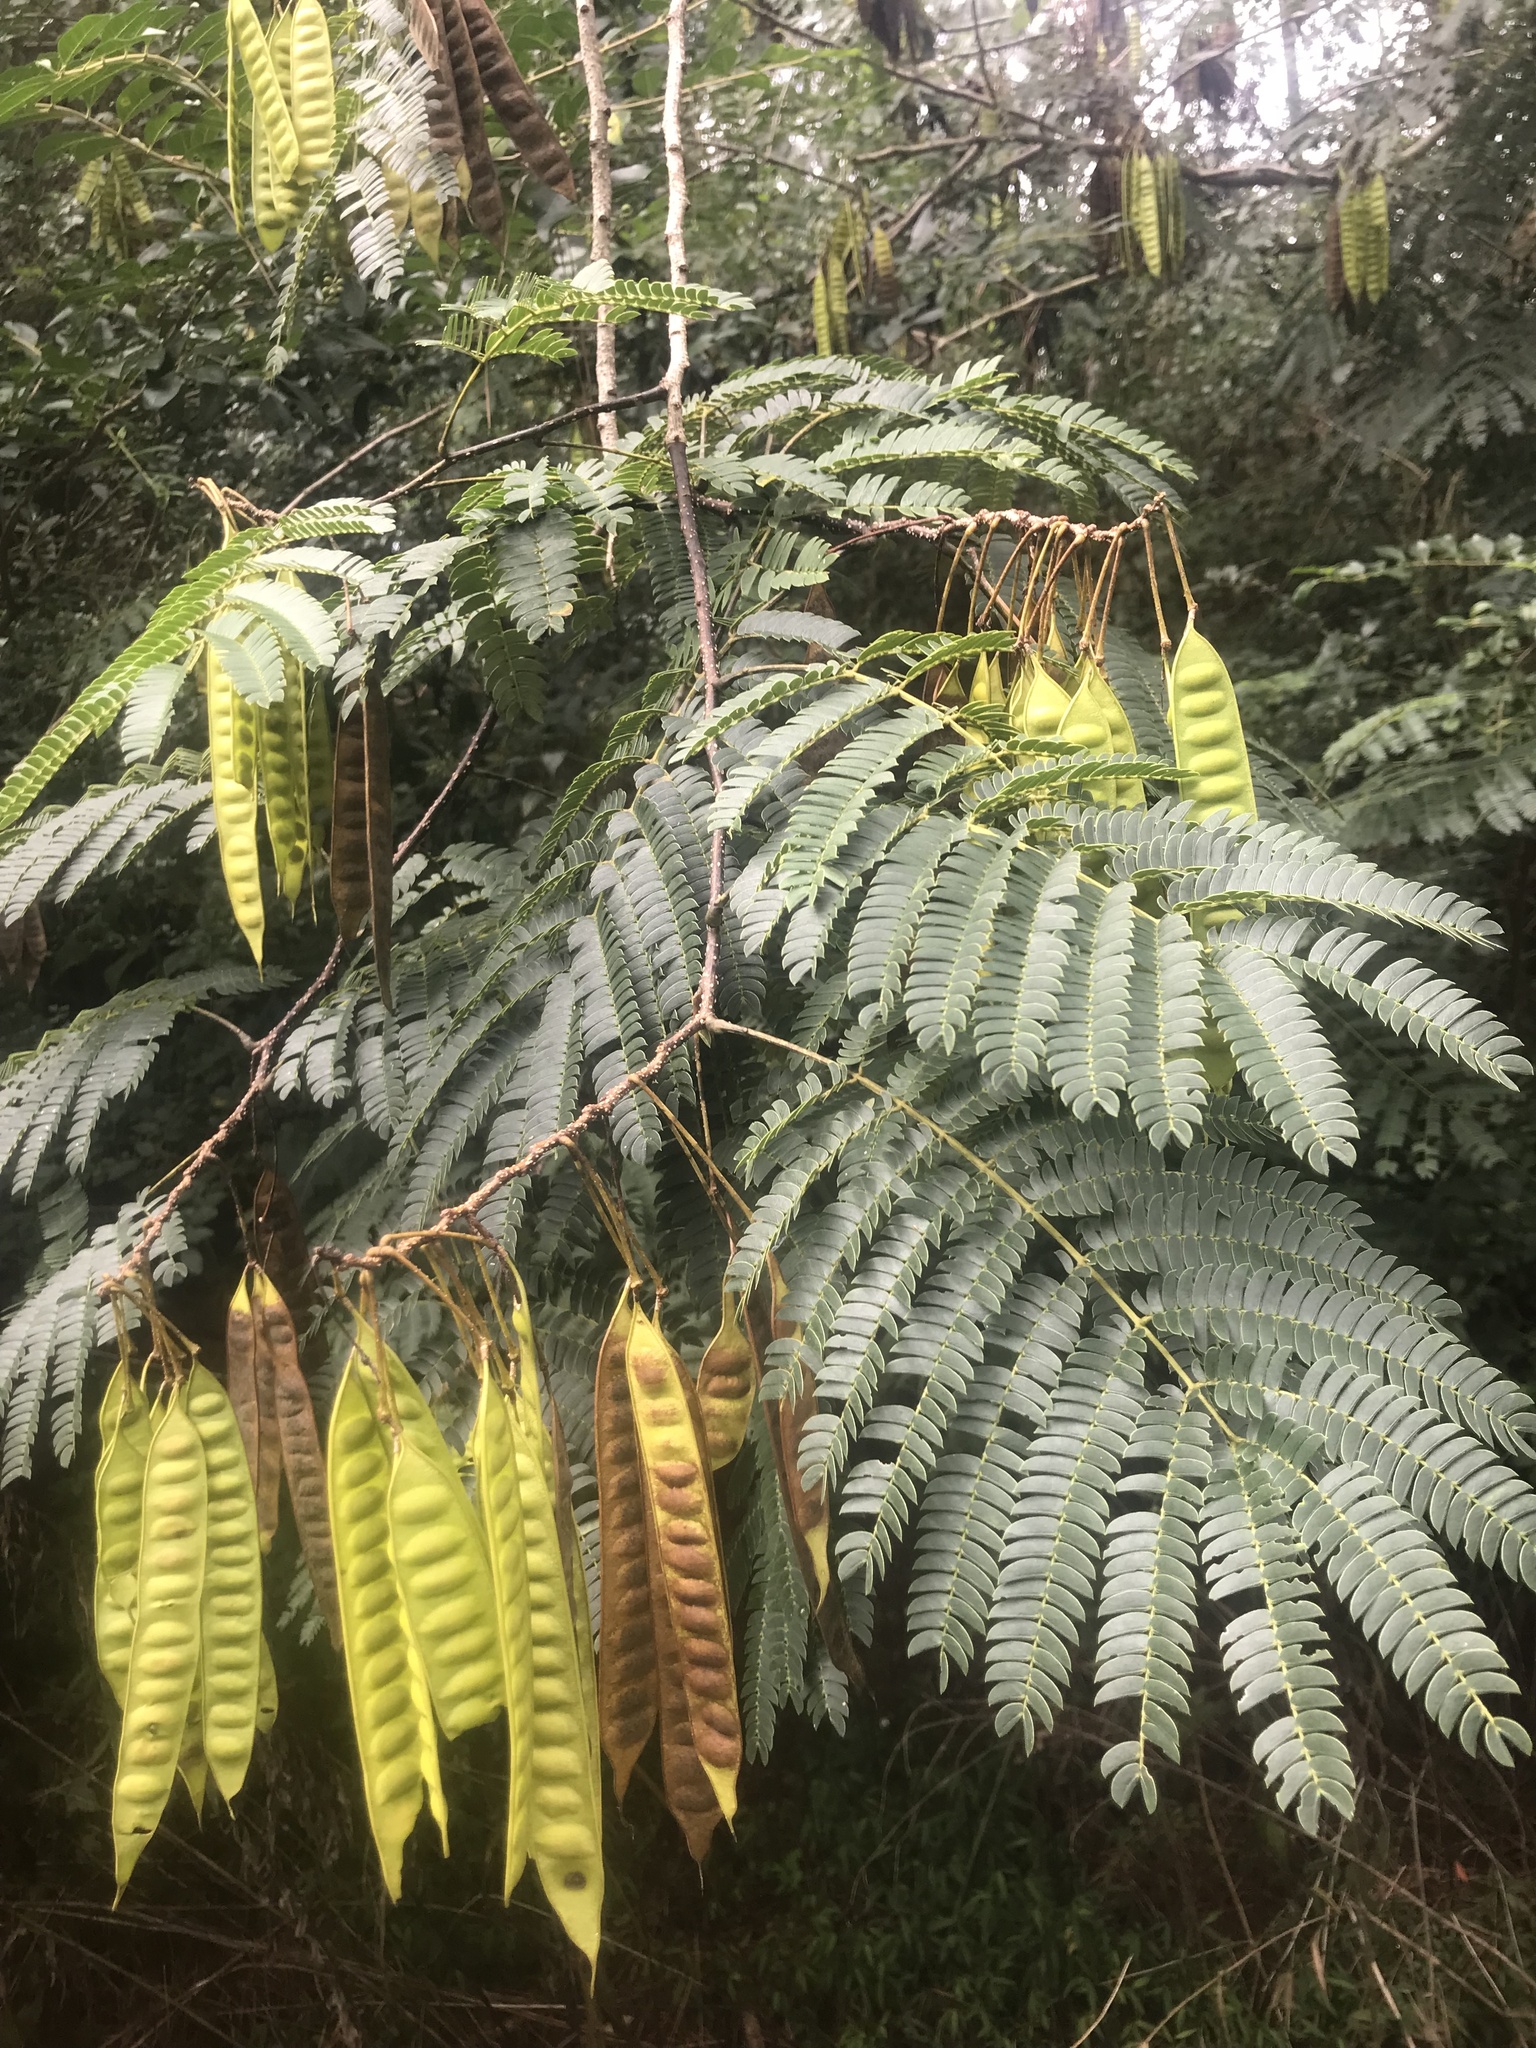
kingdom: Plantae
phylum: Tracheophyta
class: Magnoliopsida
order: Fabales
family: Fabaceae
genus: Albizia
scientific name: Albizia julibrissin
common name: Silktree
